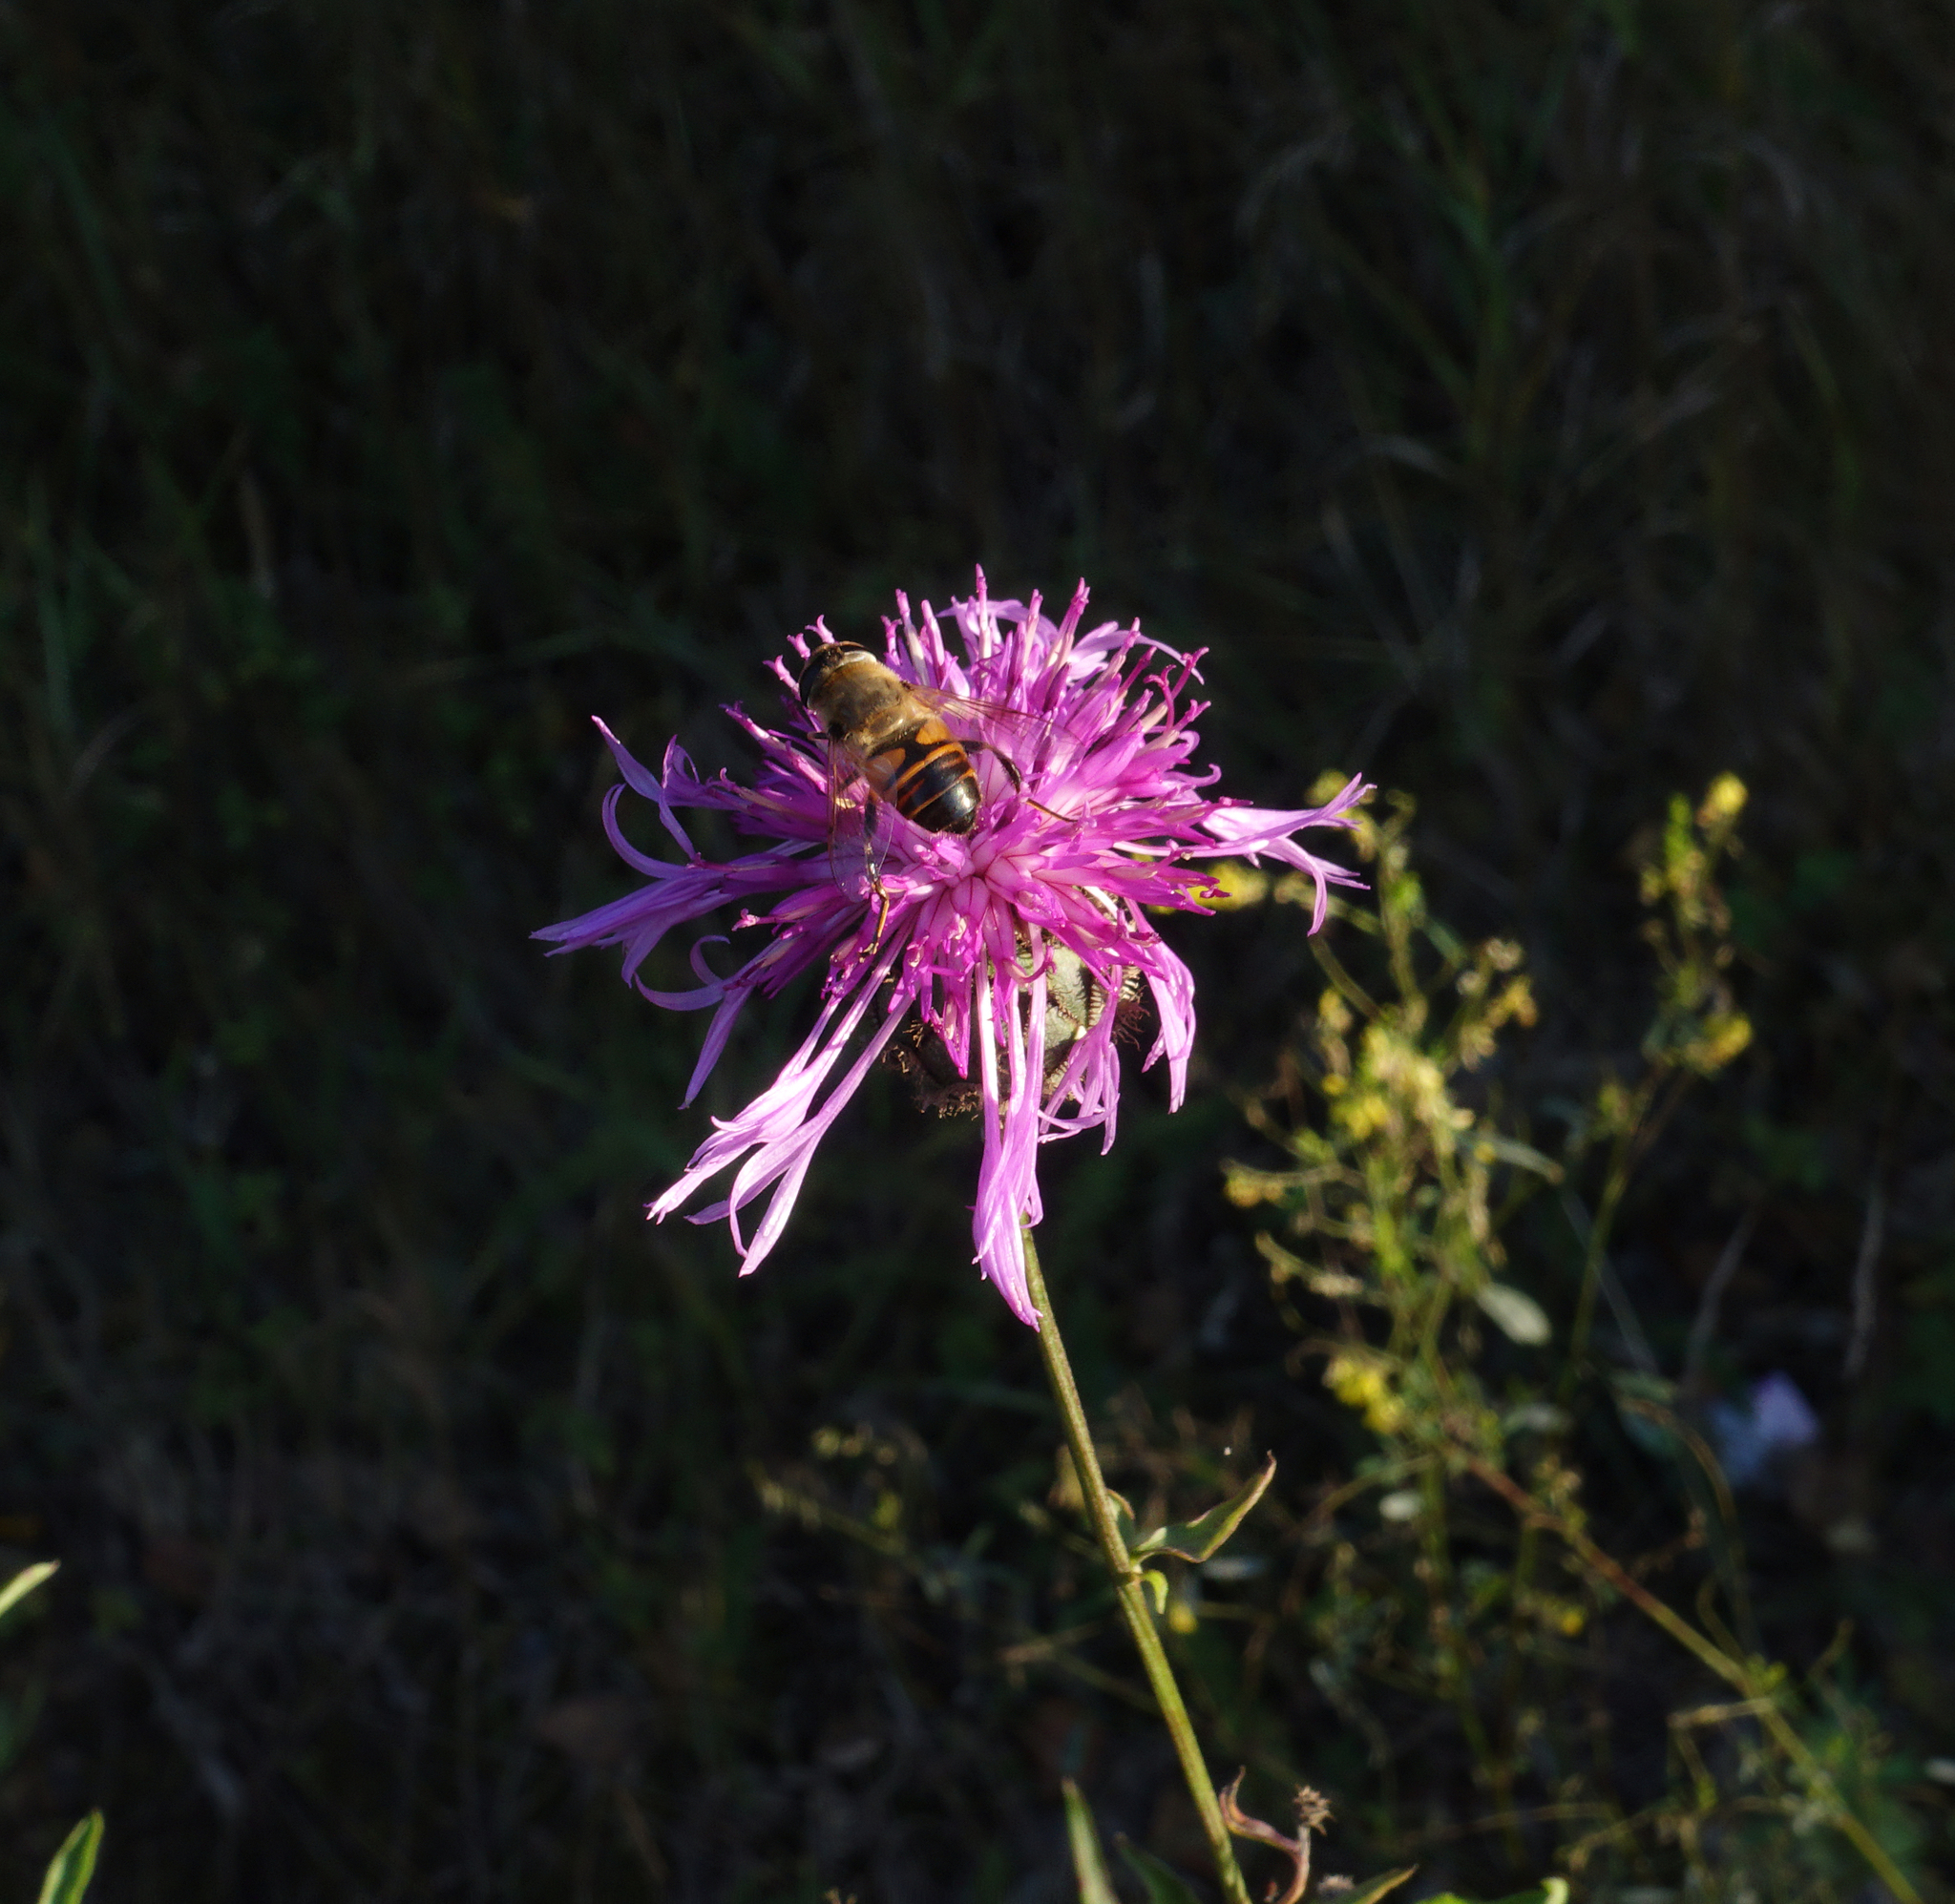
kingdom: Animalia
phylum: Arthropoda
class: Insecta
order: Diptera
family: Syrphidae
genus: Eristalis
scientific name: Eristalis tenax
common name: Drone fly
